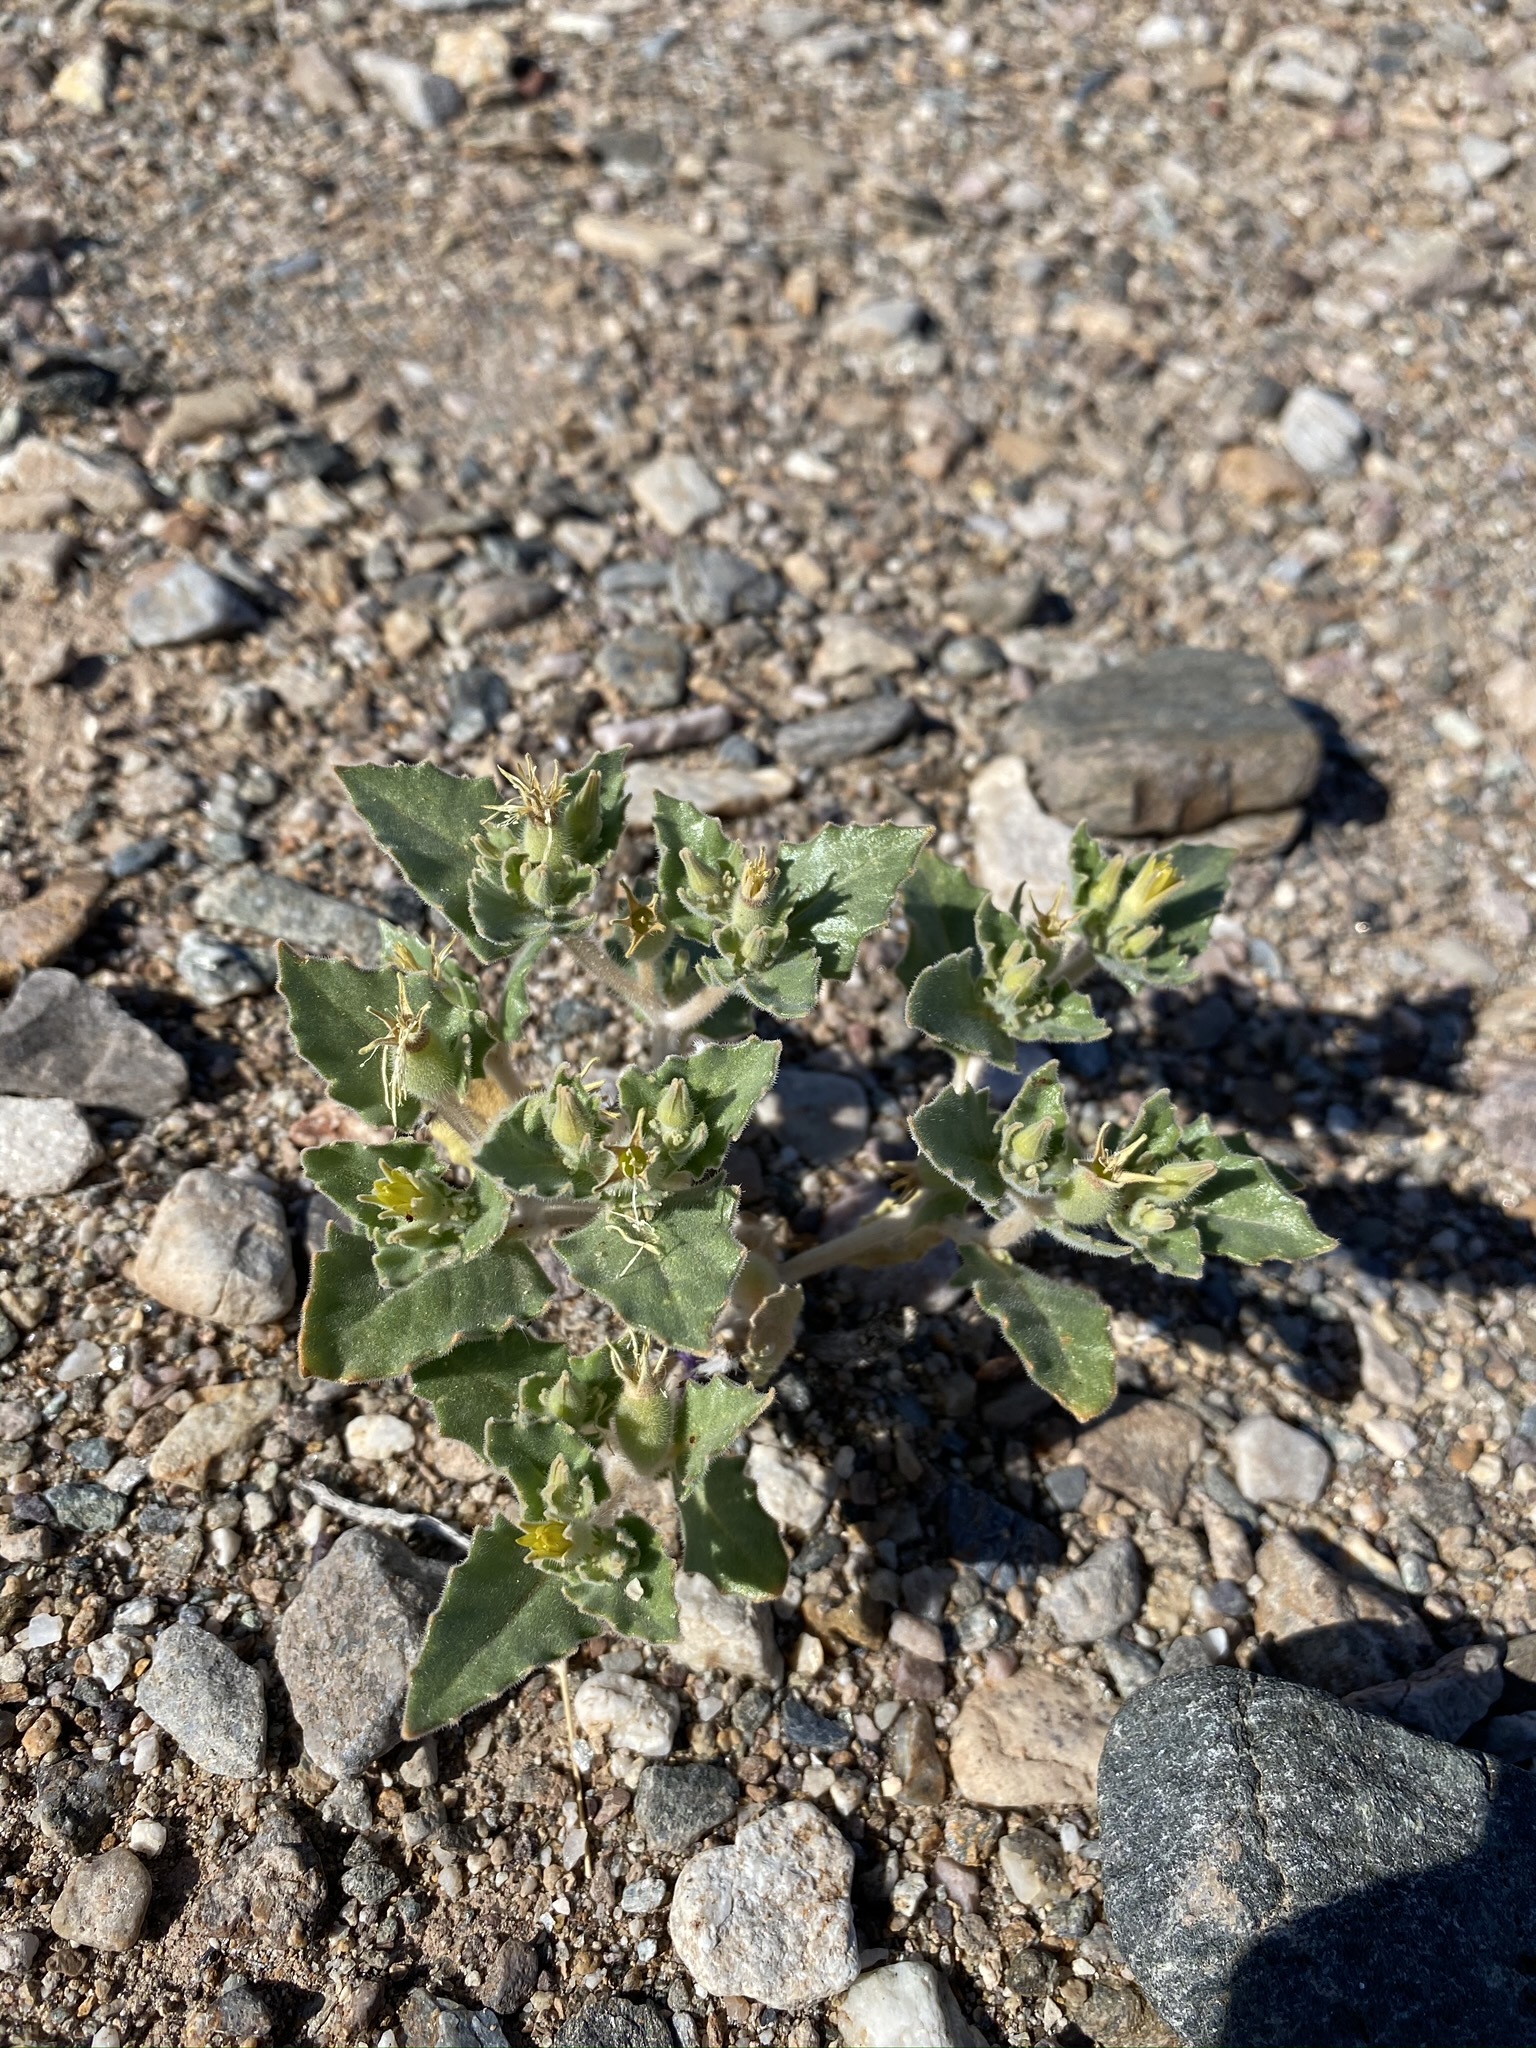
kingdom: Plantae
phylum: Tracheophyta
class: Magnoliopsida
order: Cornales
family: Loasaceae
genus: Mentzelia
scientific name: Mentzelia reflexa
